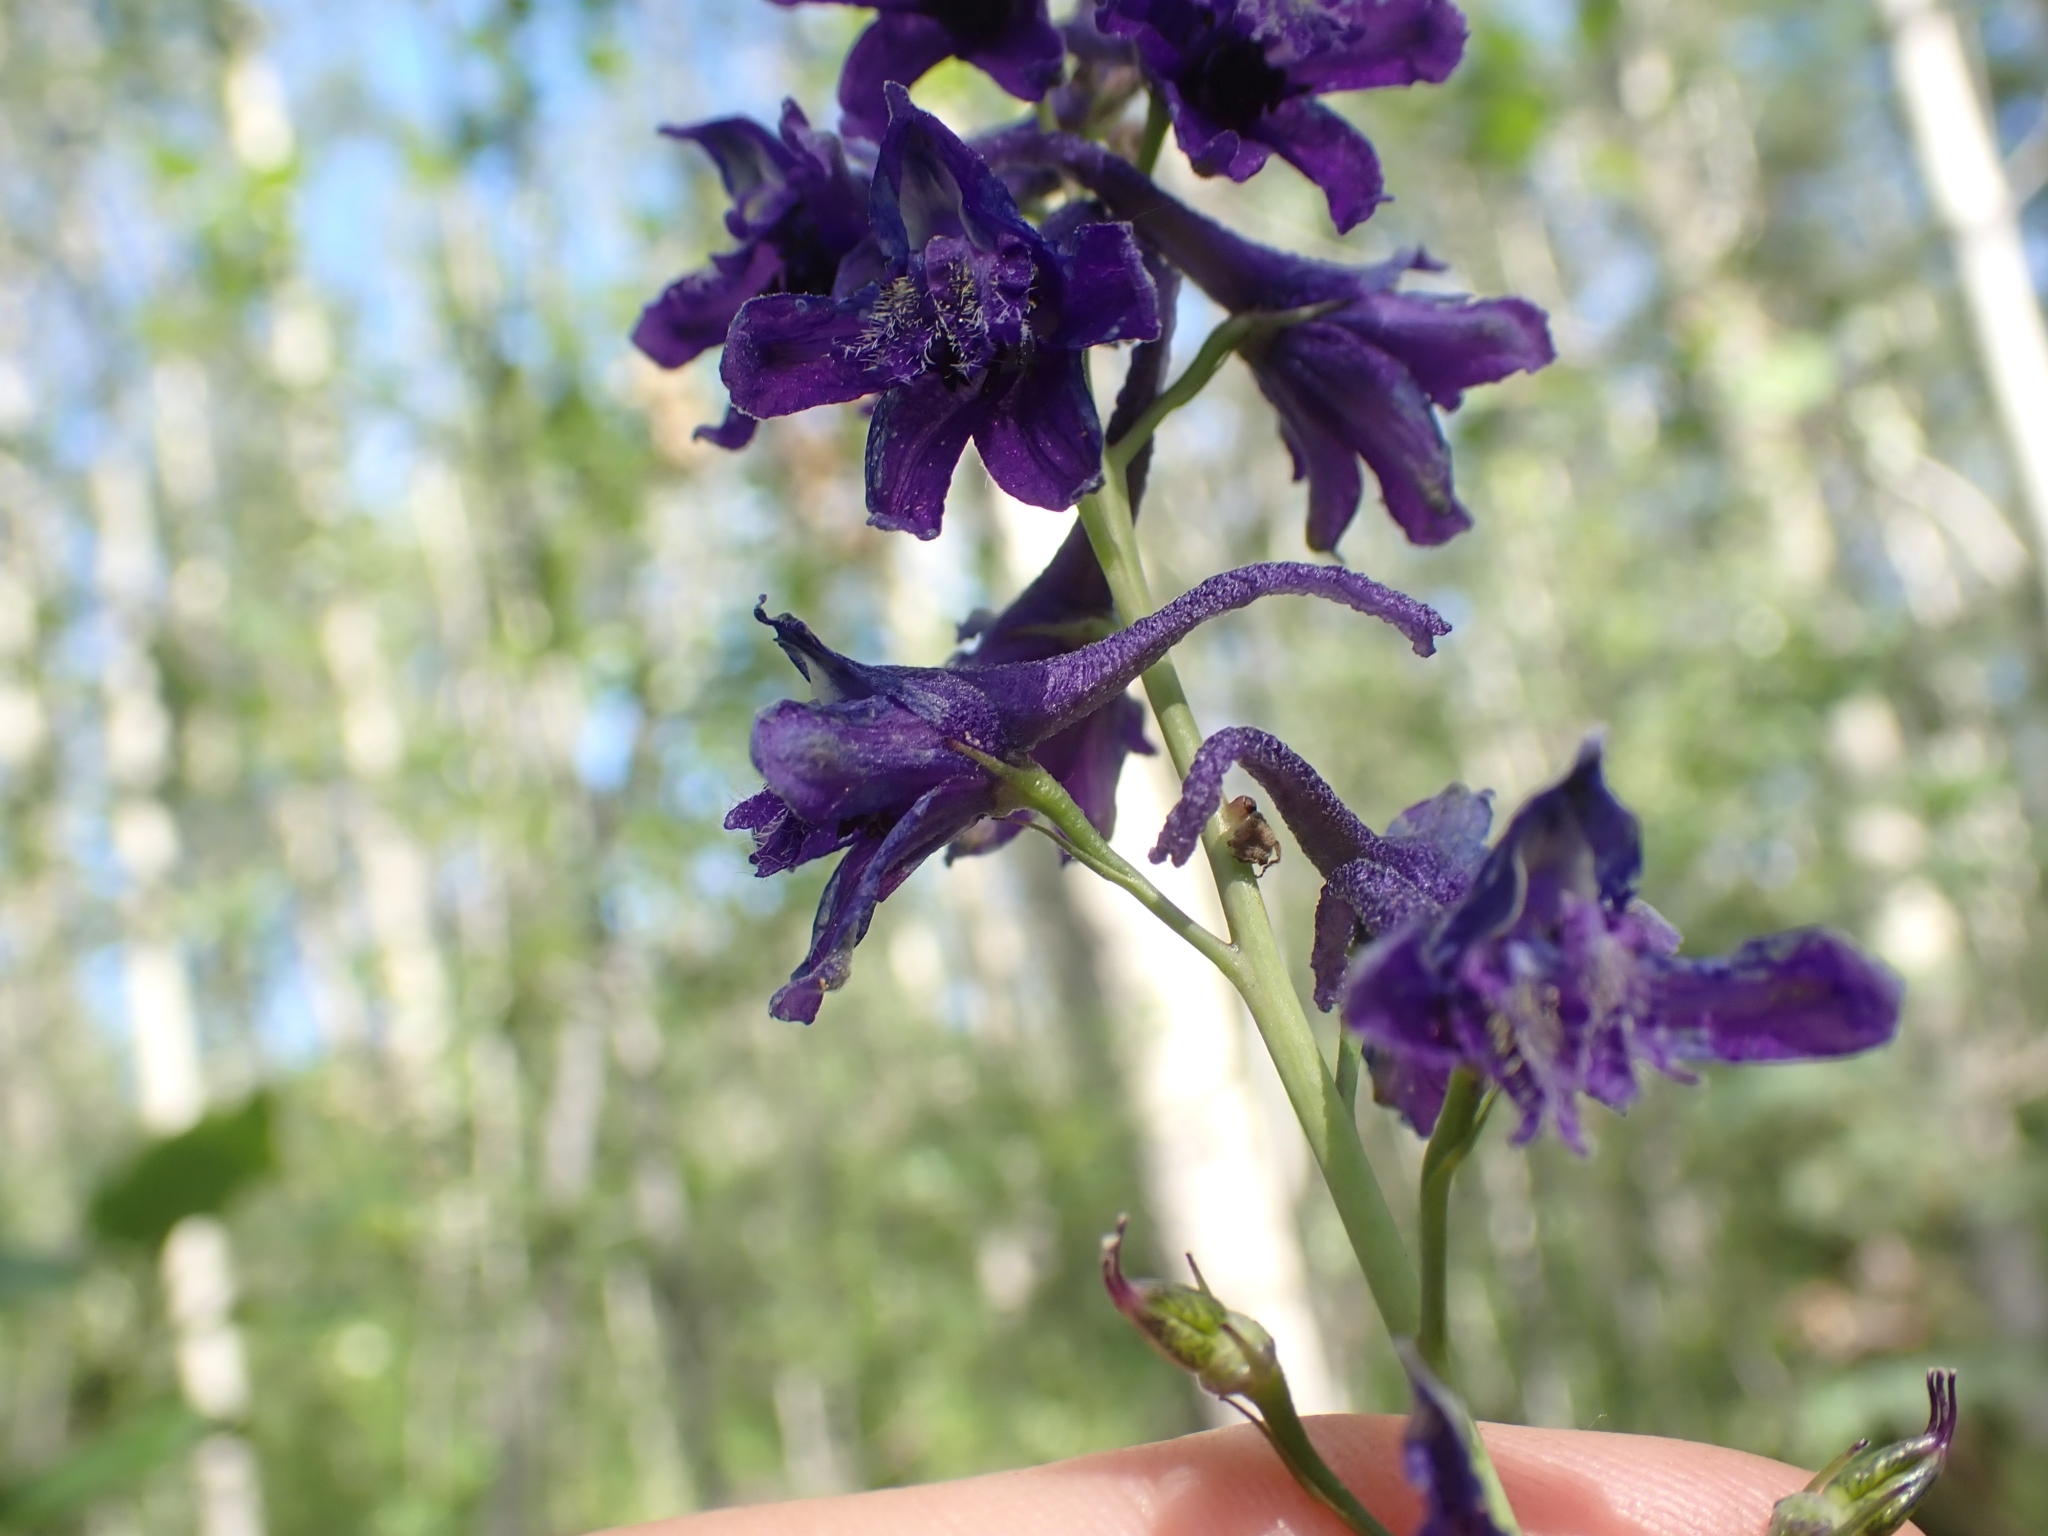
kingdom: Plantae
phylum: Tracheophyta
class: Magnoliopsida
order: Ranunculales
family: Ranunculaceae
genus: Delphinium
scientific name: Delphinium glaucum
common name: Brown's larkspur
